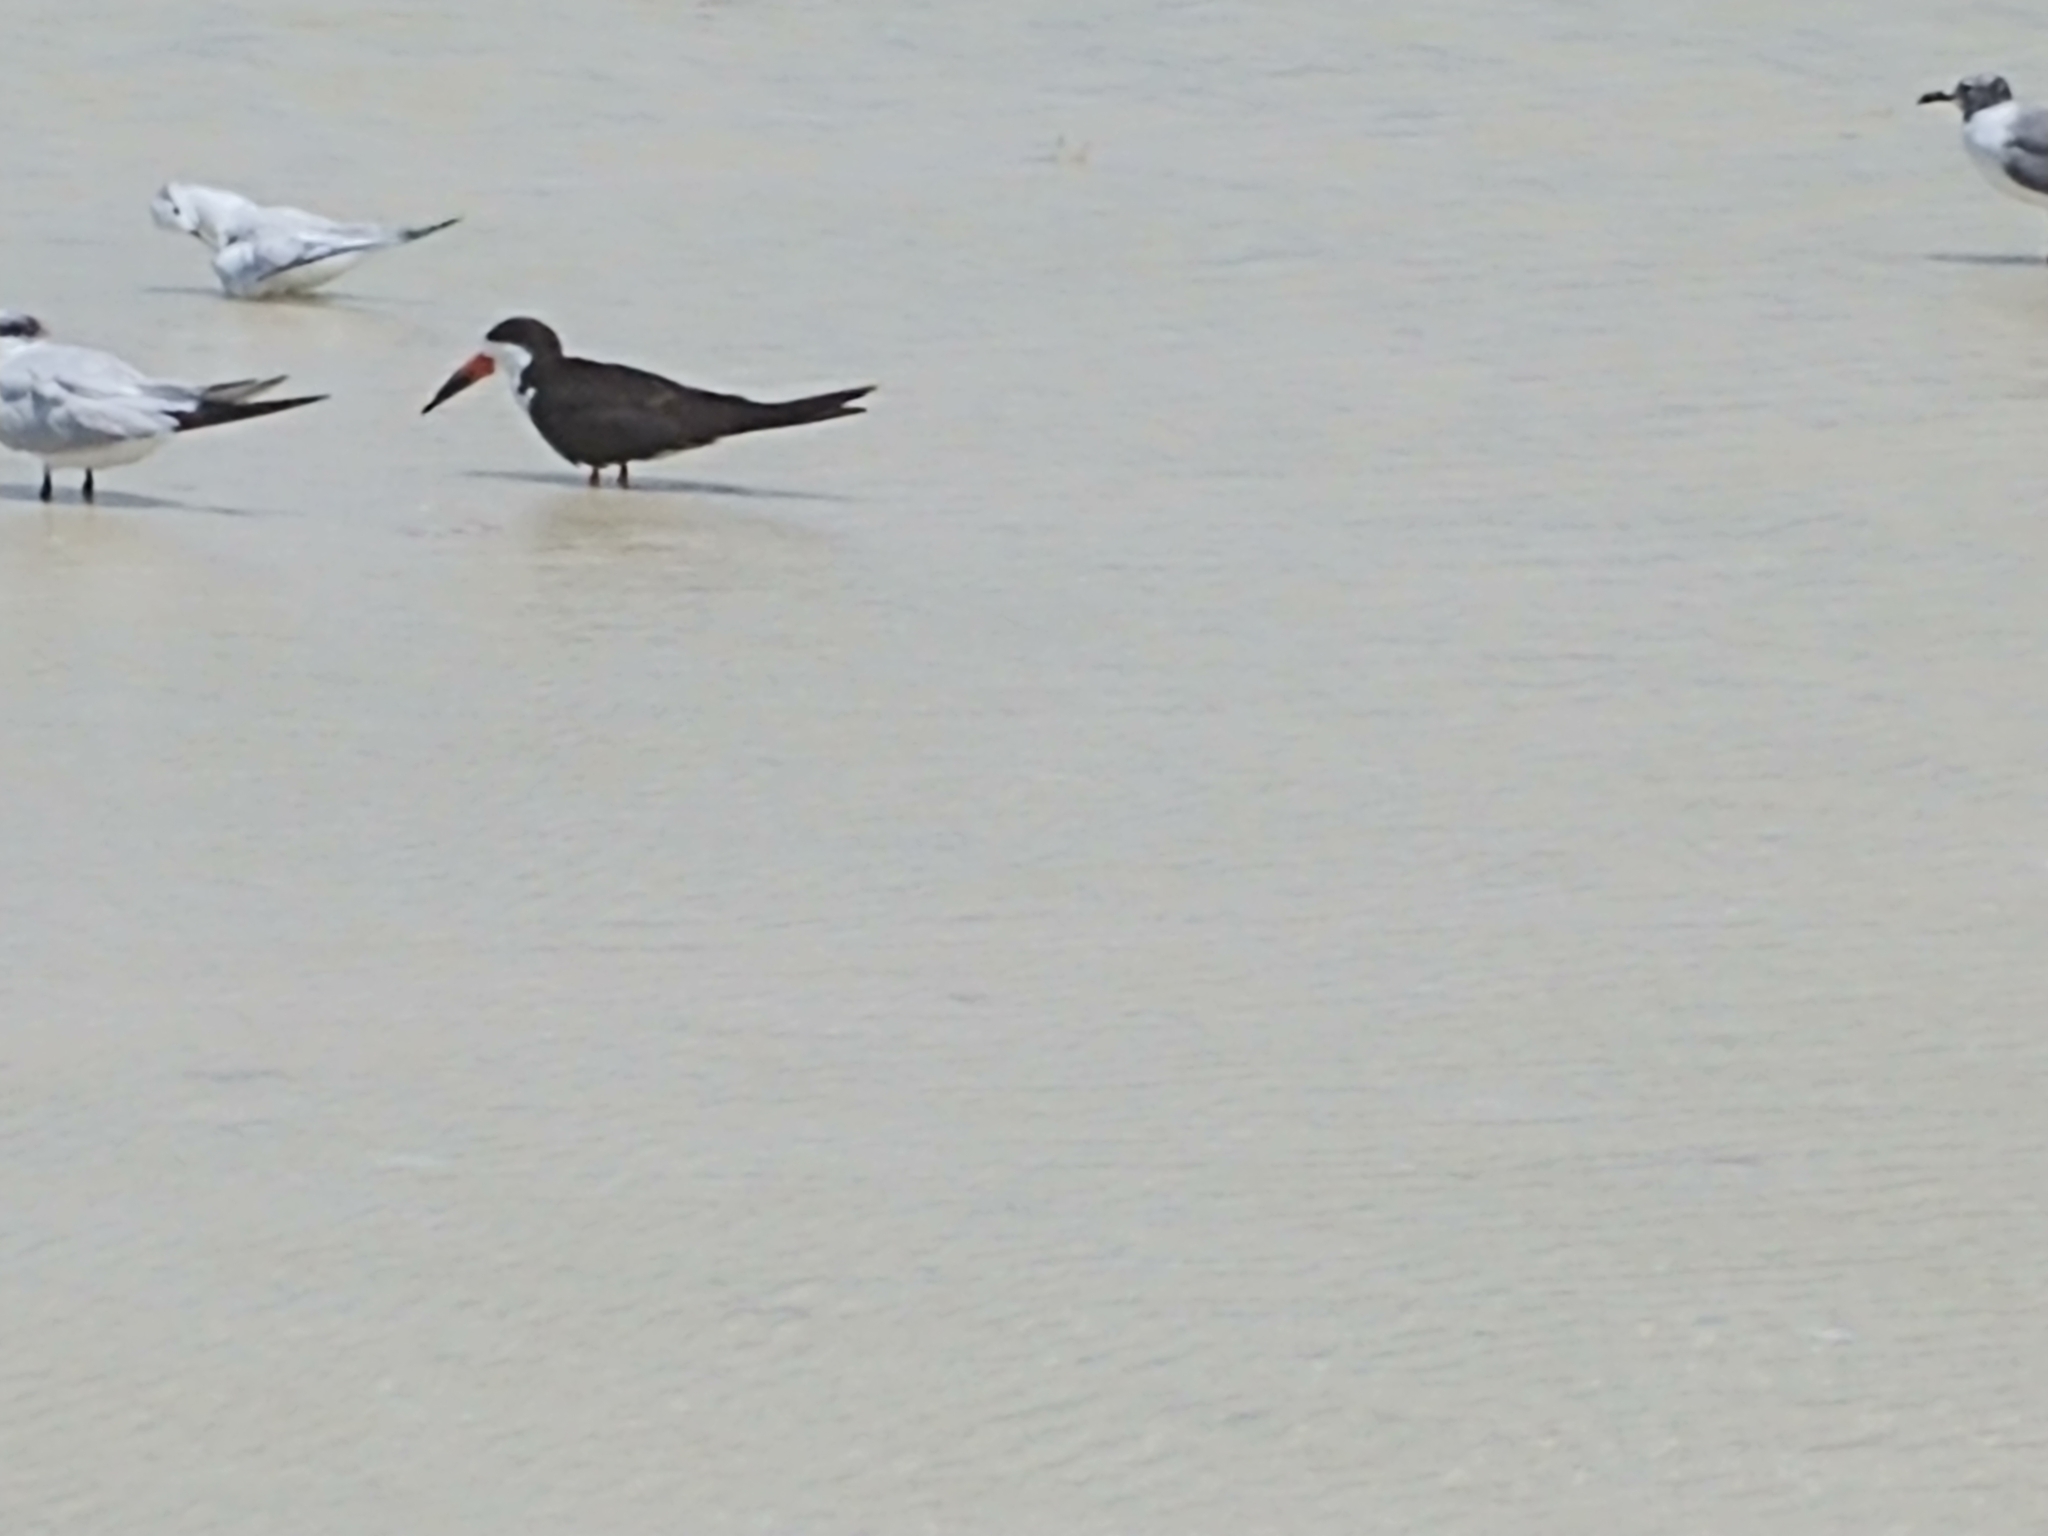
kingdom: Animalia
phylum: Chordata
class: Aves
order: Charadriiformes
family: Laridae
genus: Rynchops
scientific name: Rynchops niger
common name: Black skimmer
